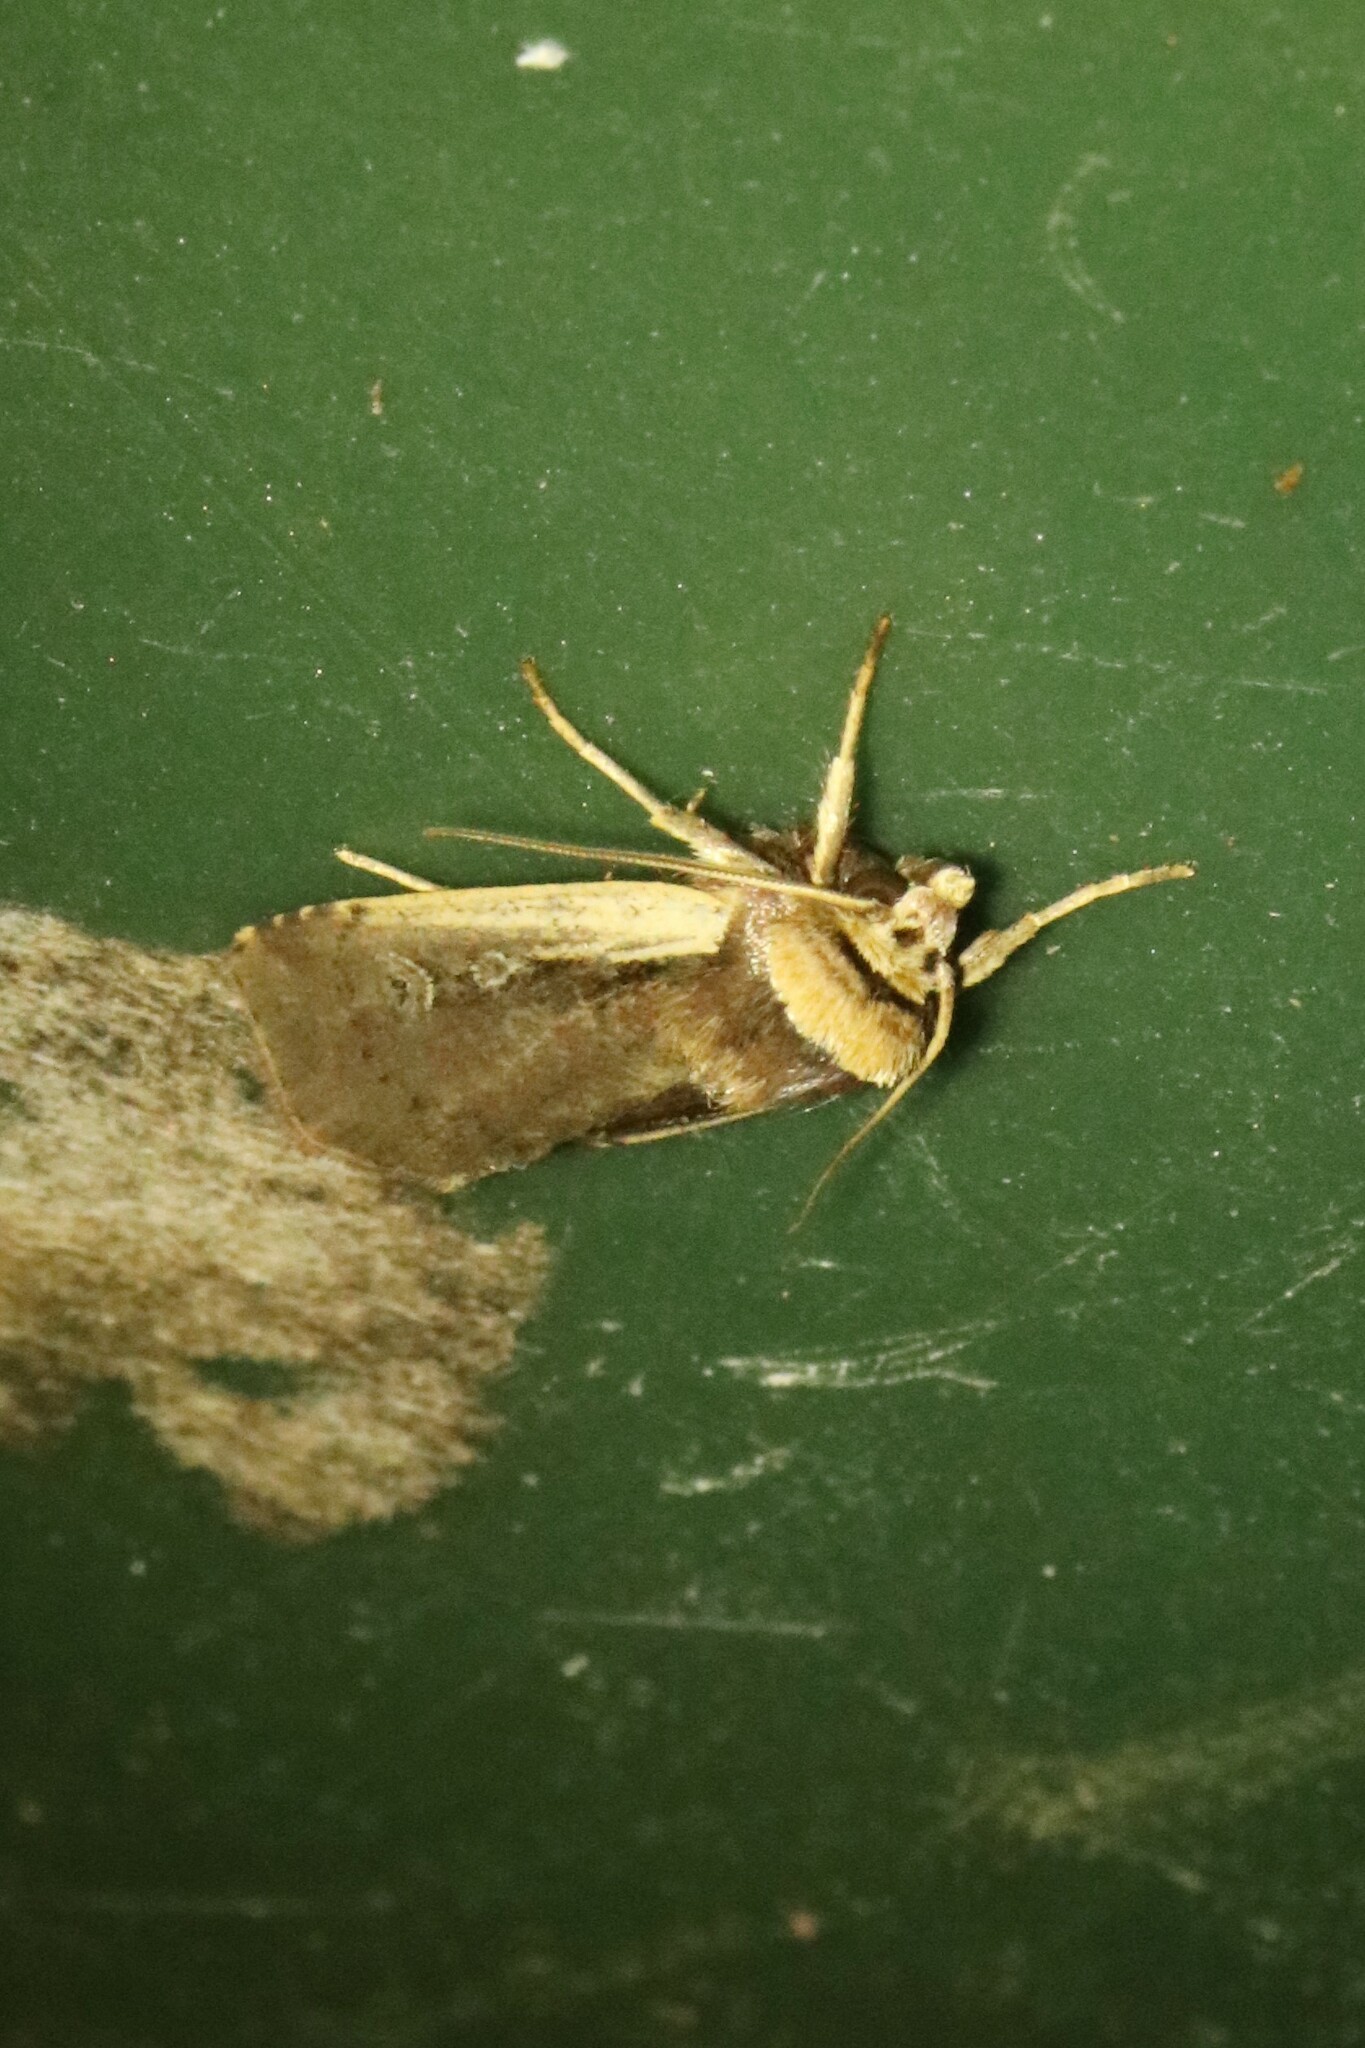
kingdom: Animalia
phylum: Arthropoda
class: Insecta
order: Lepidoptera
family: Noctuidae
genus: Ochropleura
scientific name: Ochropleura implecta
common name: Flame-shouldered dart
